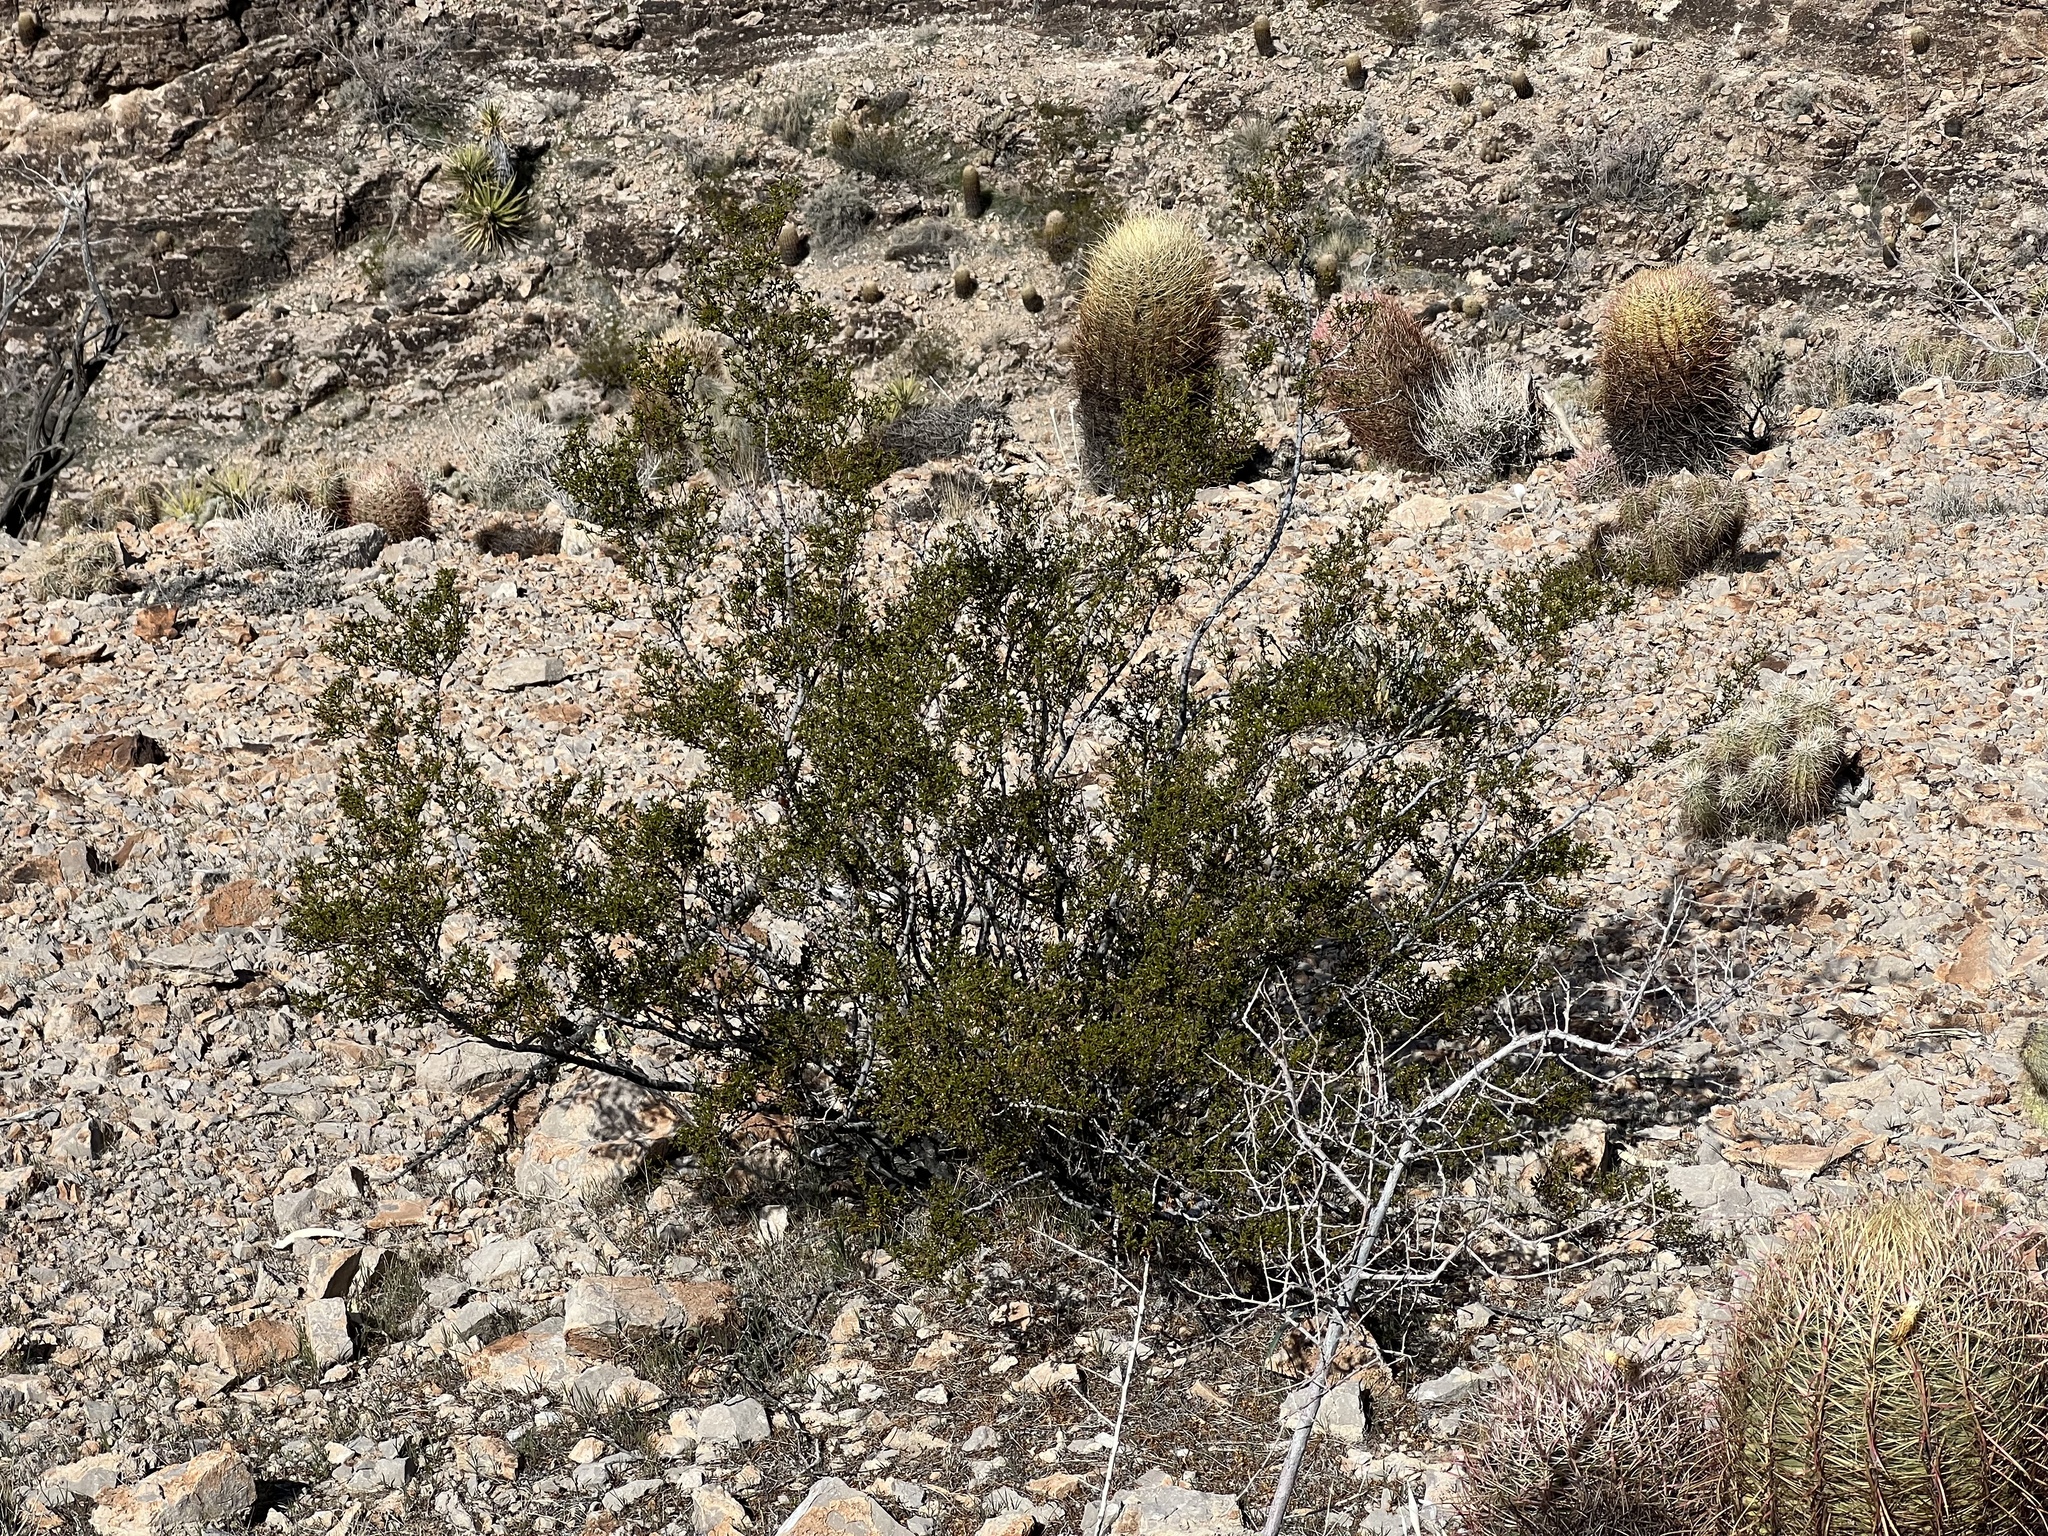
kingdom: Plantae
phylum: Tracheophyta
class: Magnoliopsida
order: Zygophyllales
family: Zygophyllaceae
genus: Larrea
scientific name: Larrea tridentata
